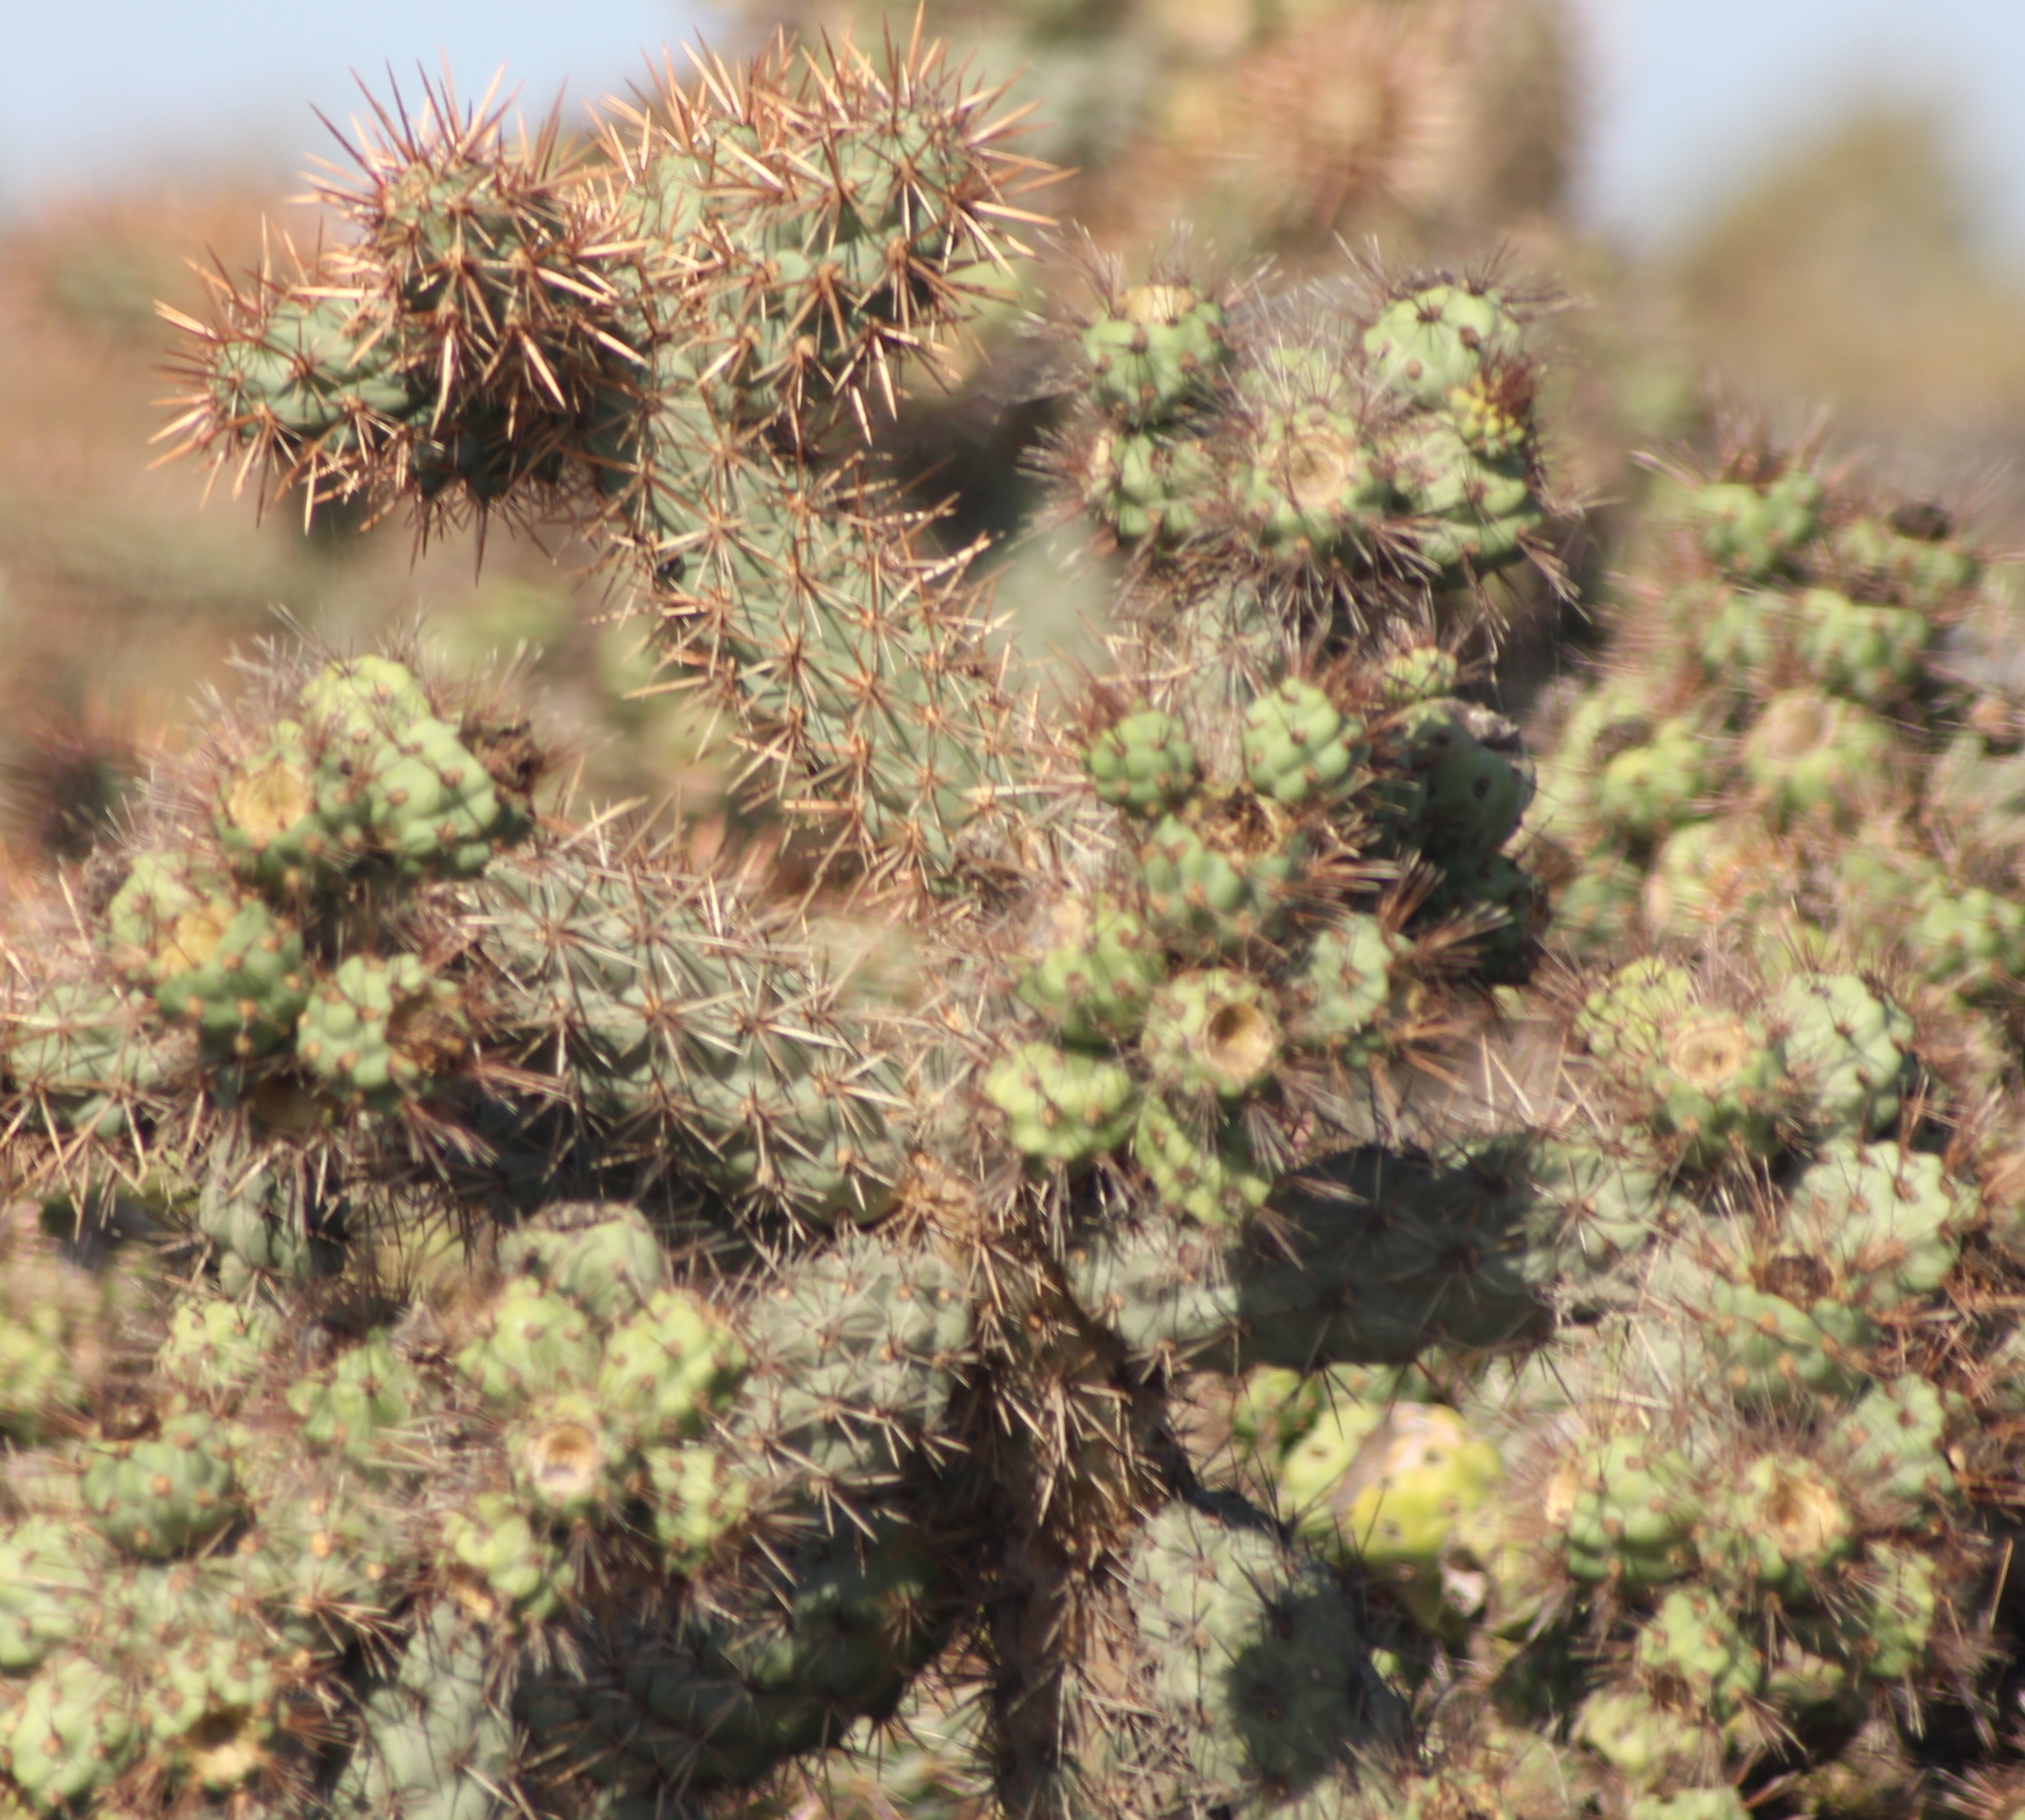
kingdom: Plantae
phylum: Tracheophyta
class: Magnoliopsida
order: Caryophyllales
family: Cactaceae
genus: Cylindropuntia
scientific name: Cylindropuntia prolifera
